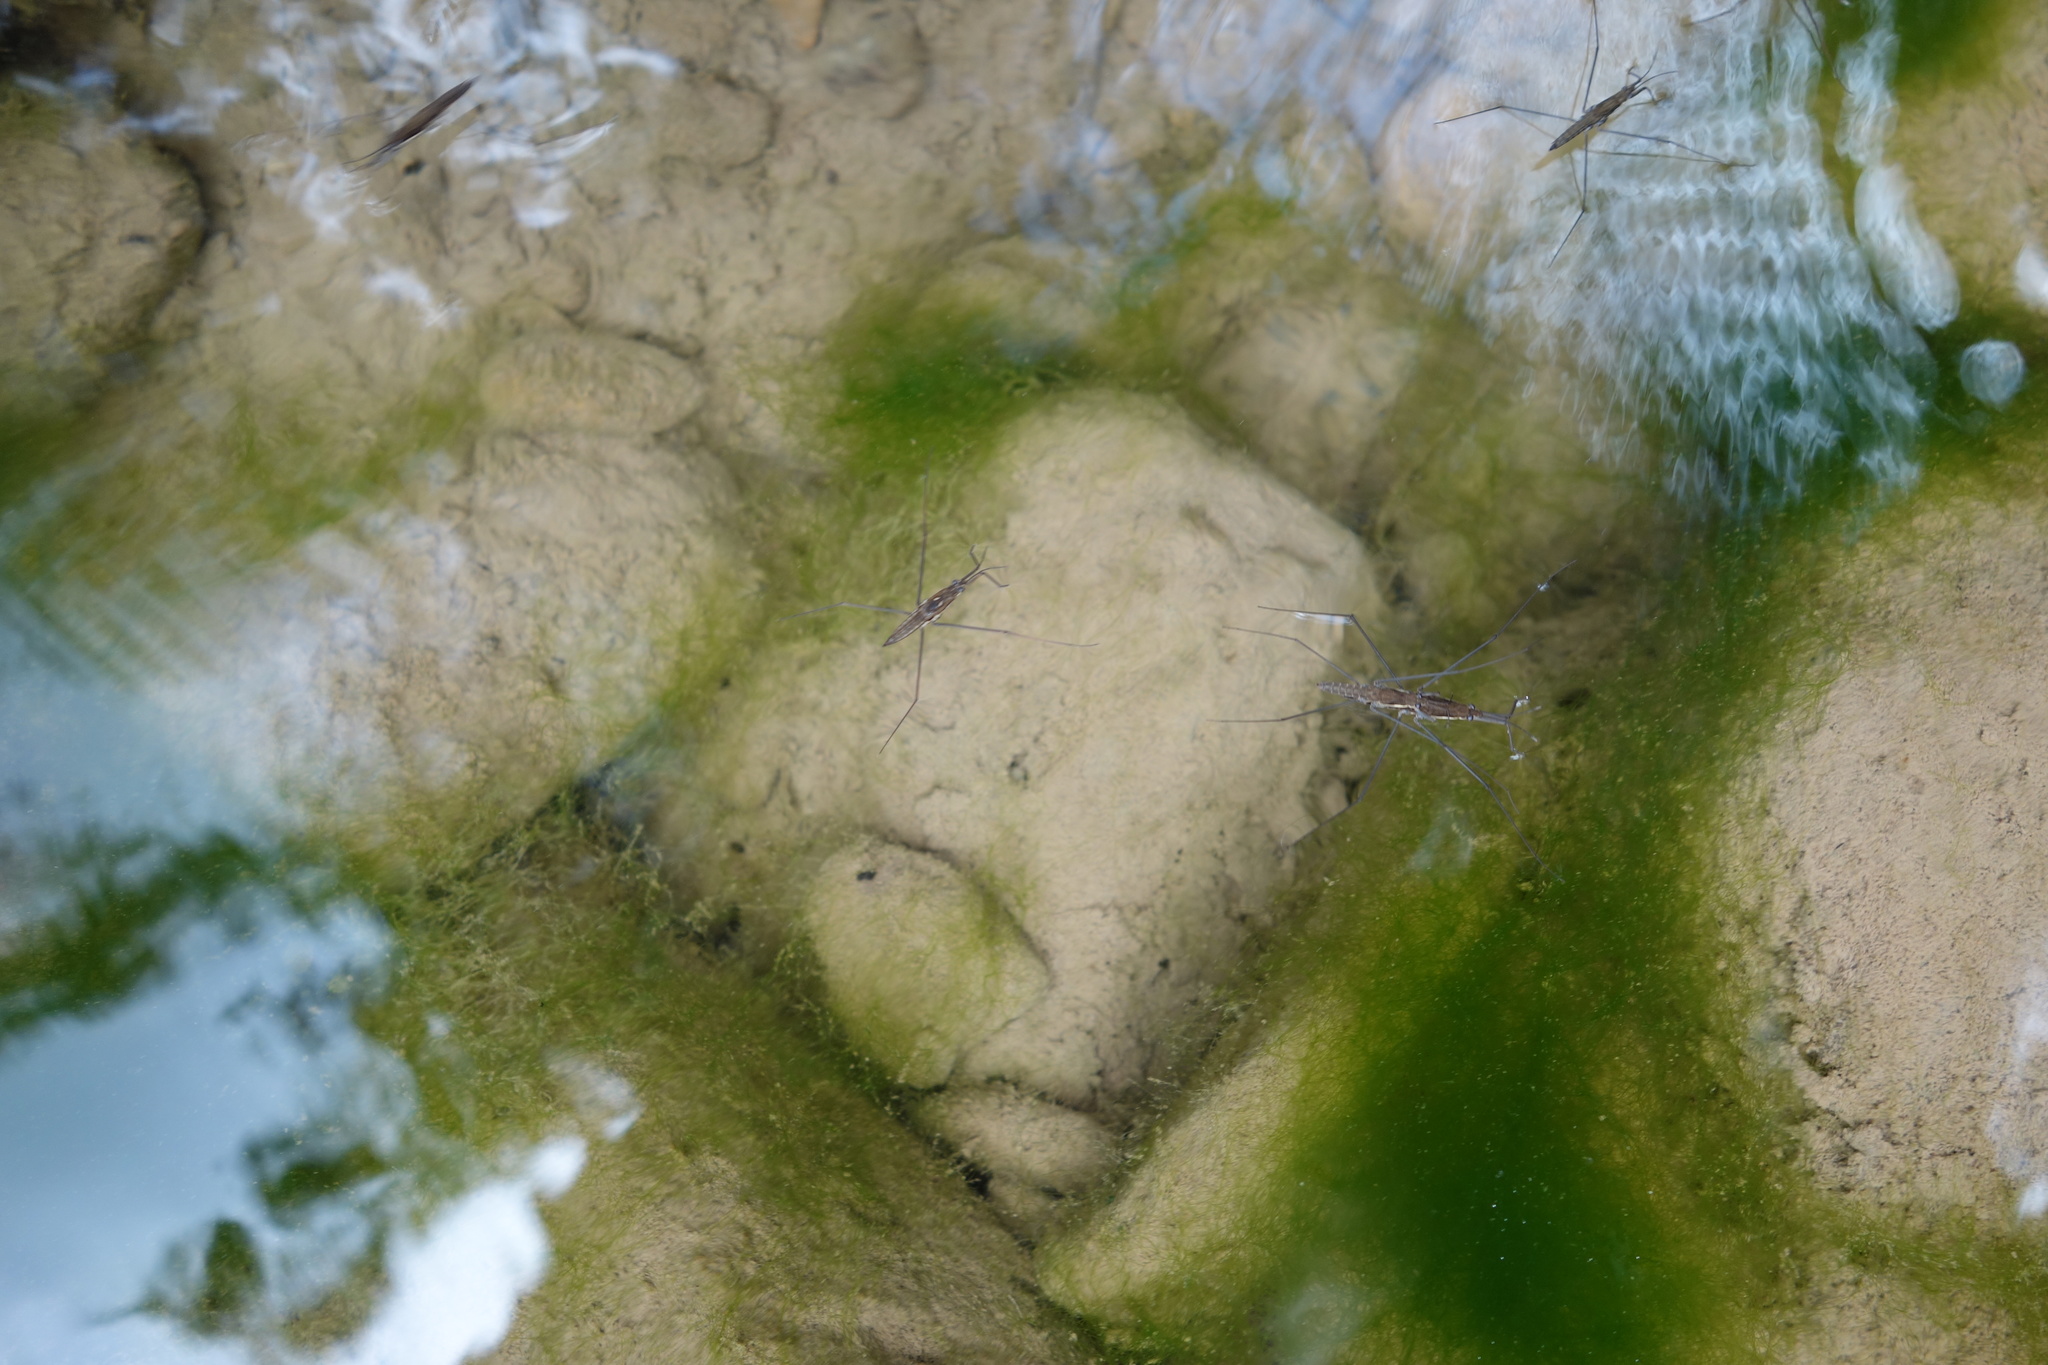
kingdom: Animalia
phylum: Arthropoda
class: Insecta
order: Hemiptera
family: Gerridae
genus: Aquarius
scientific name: Aquarius najas
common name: River skater
